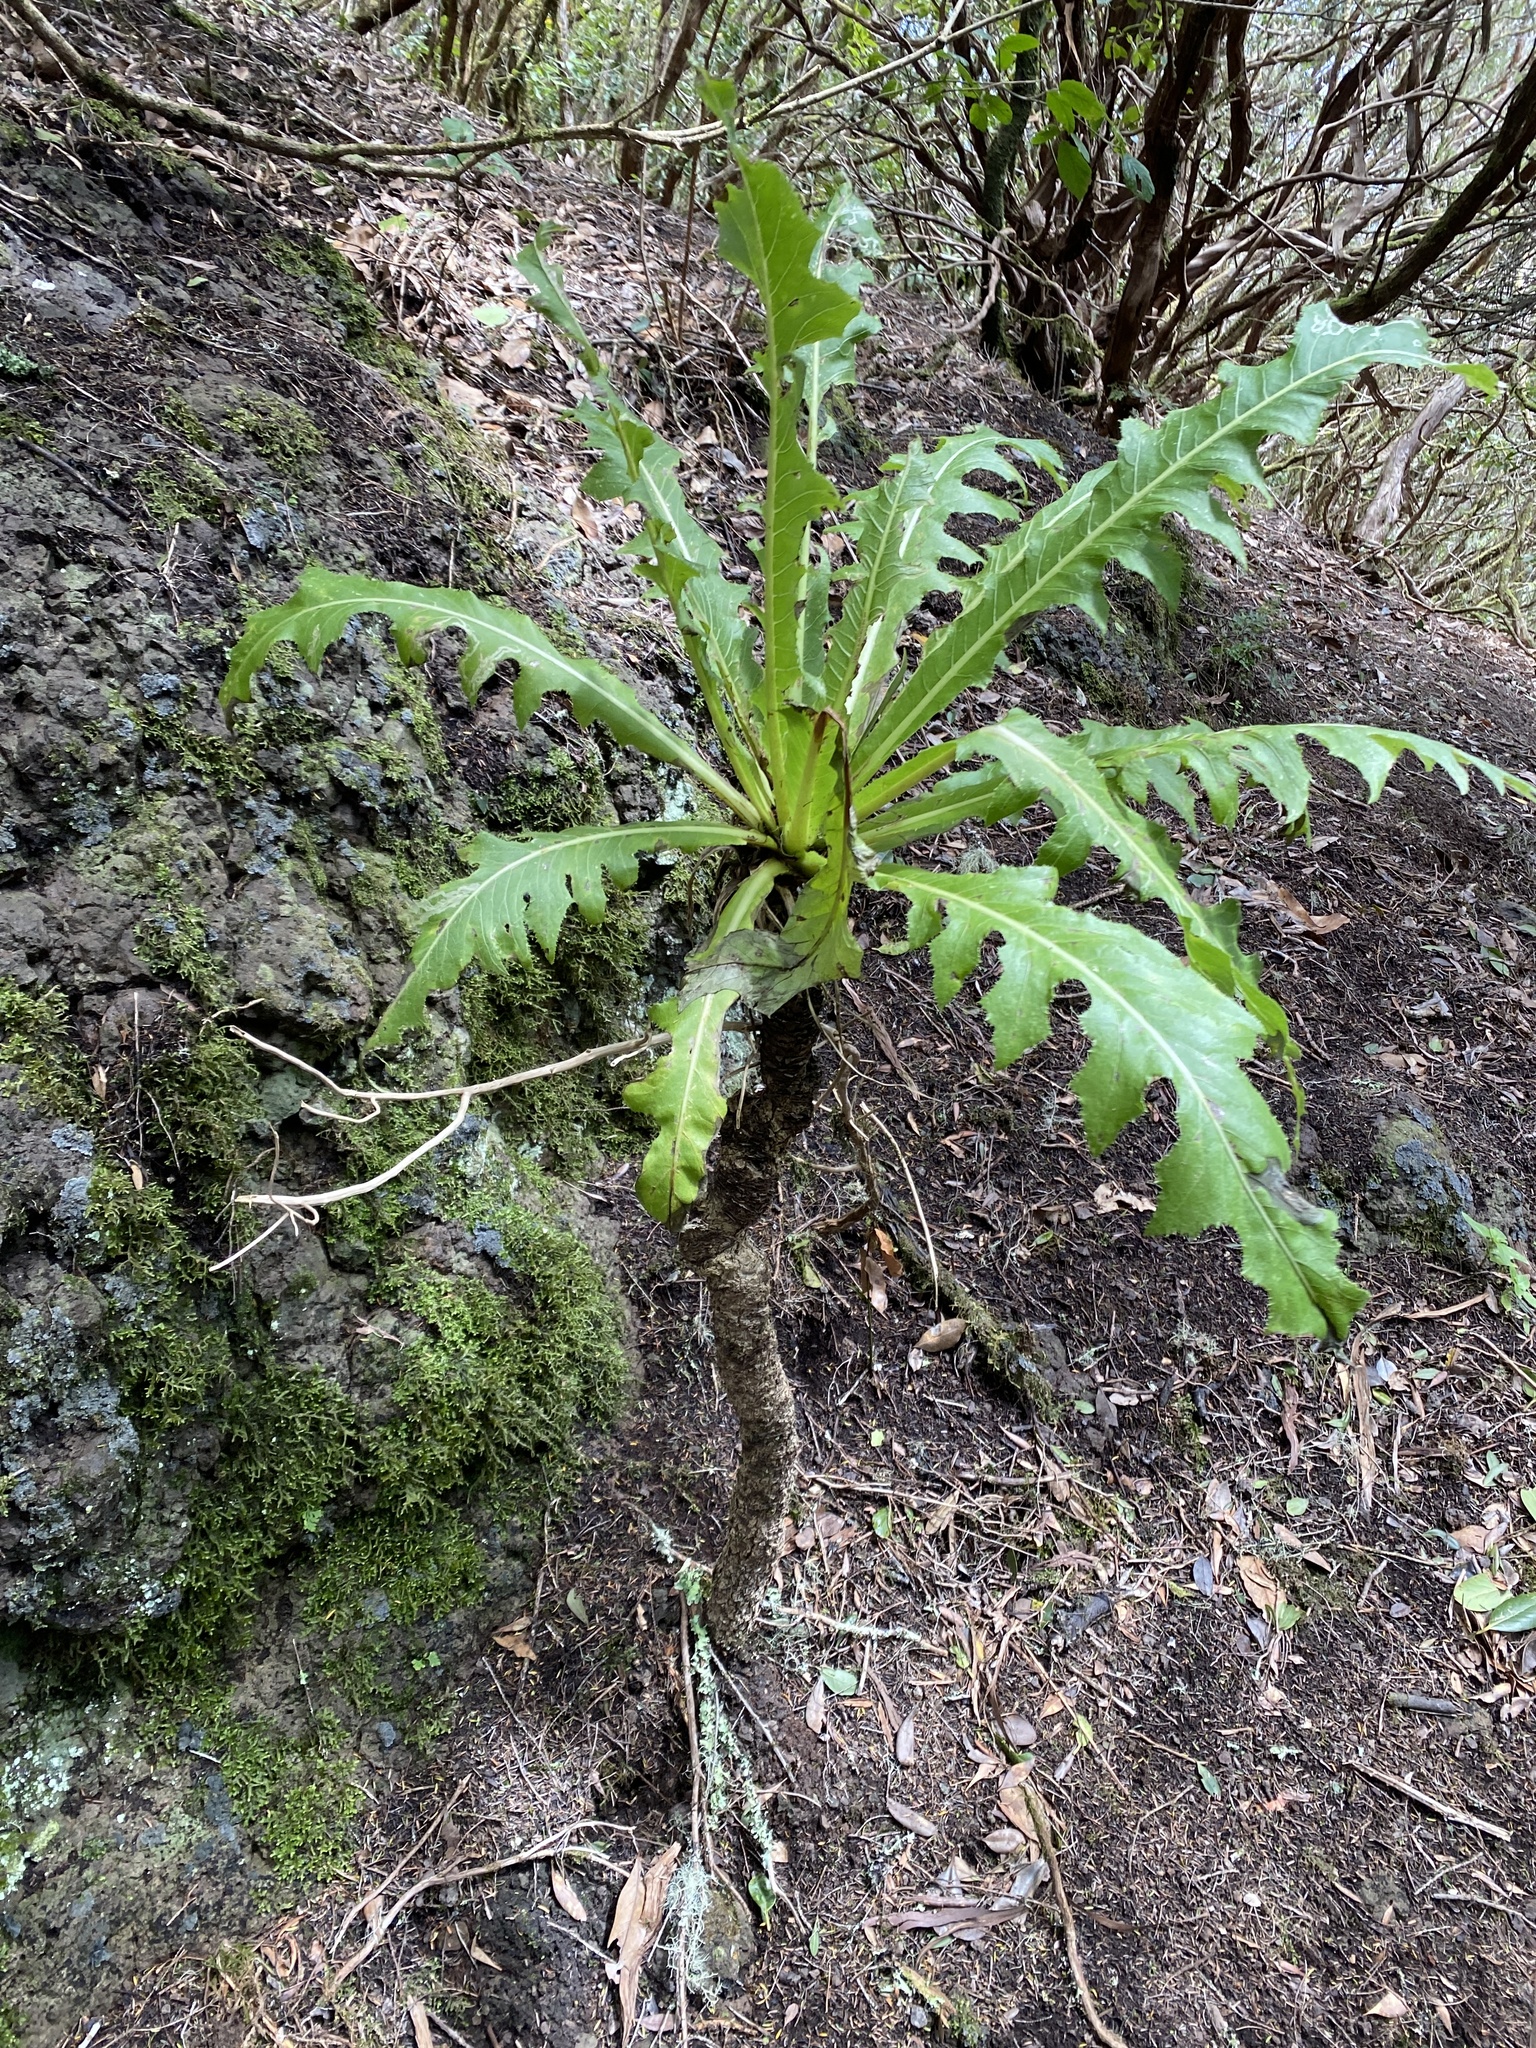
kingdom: Plantae
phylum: Tracheophyta
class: Magnoliopsida
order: Asterales
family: Asteraceae
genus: Sonchus
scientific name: Sonchus acaulis
